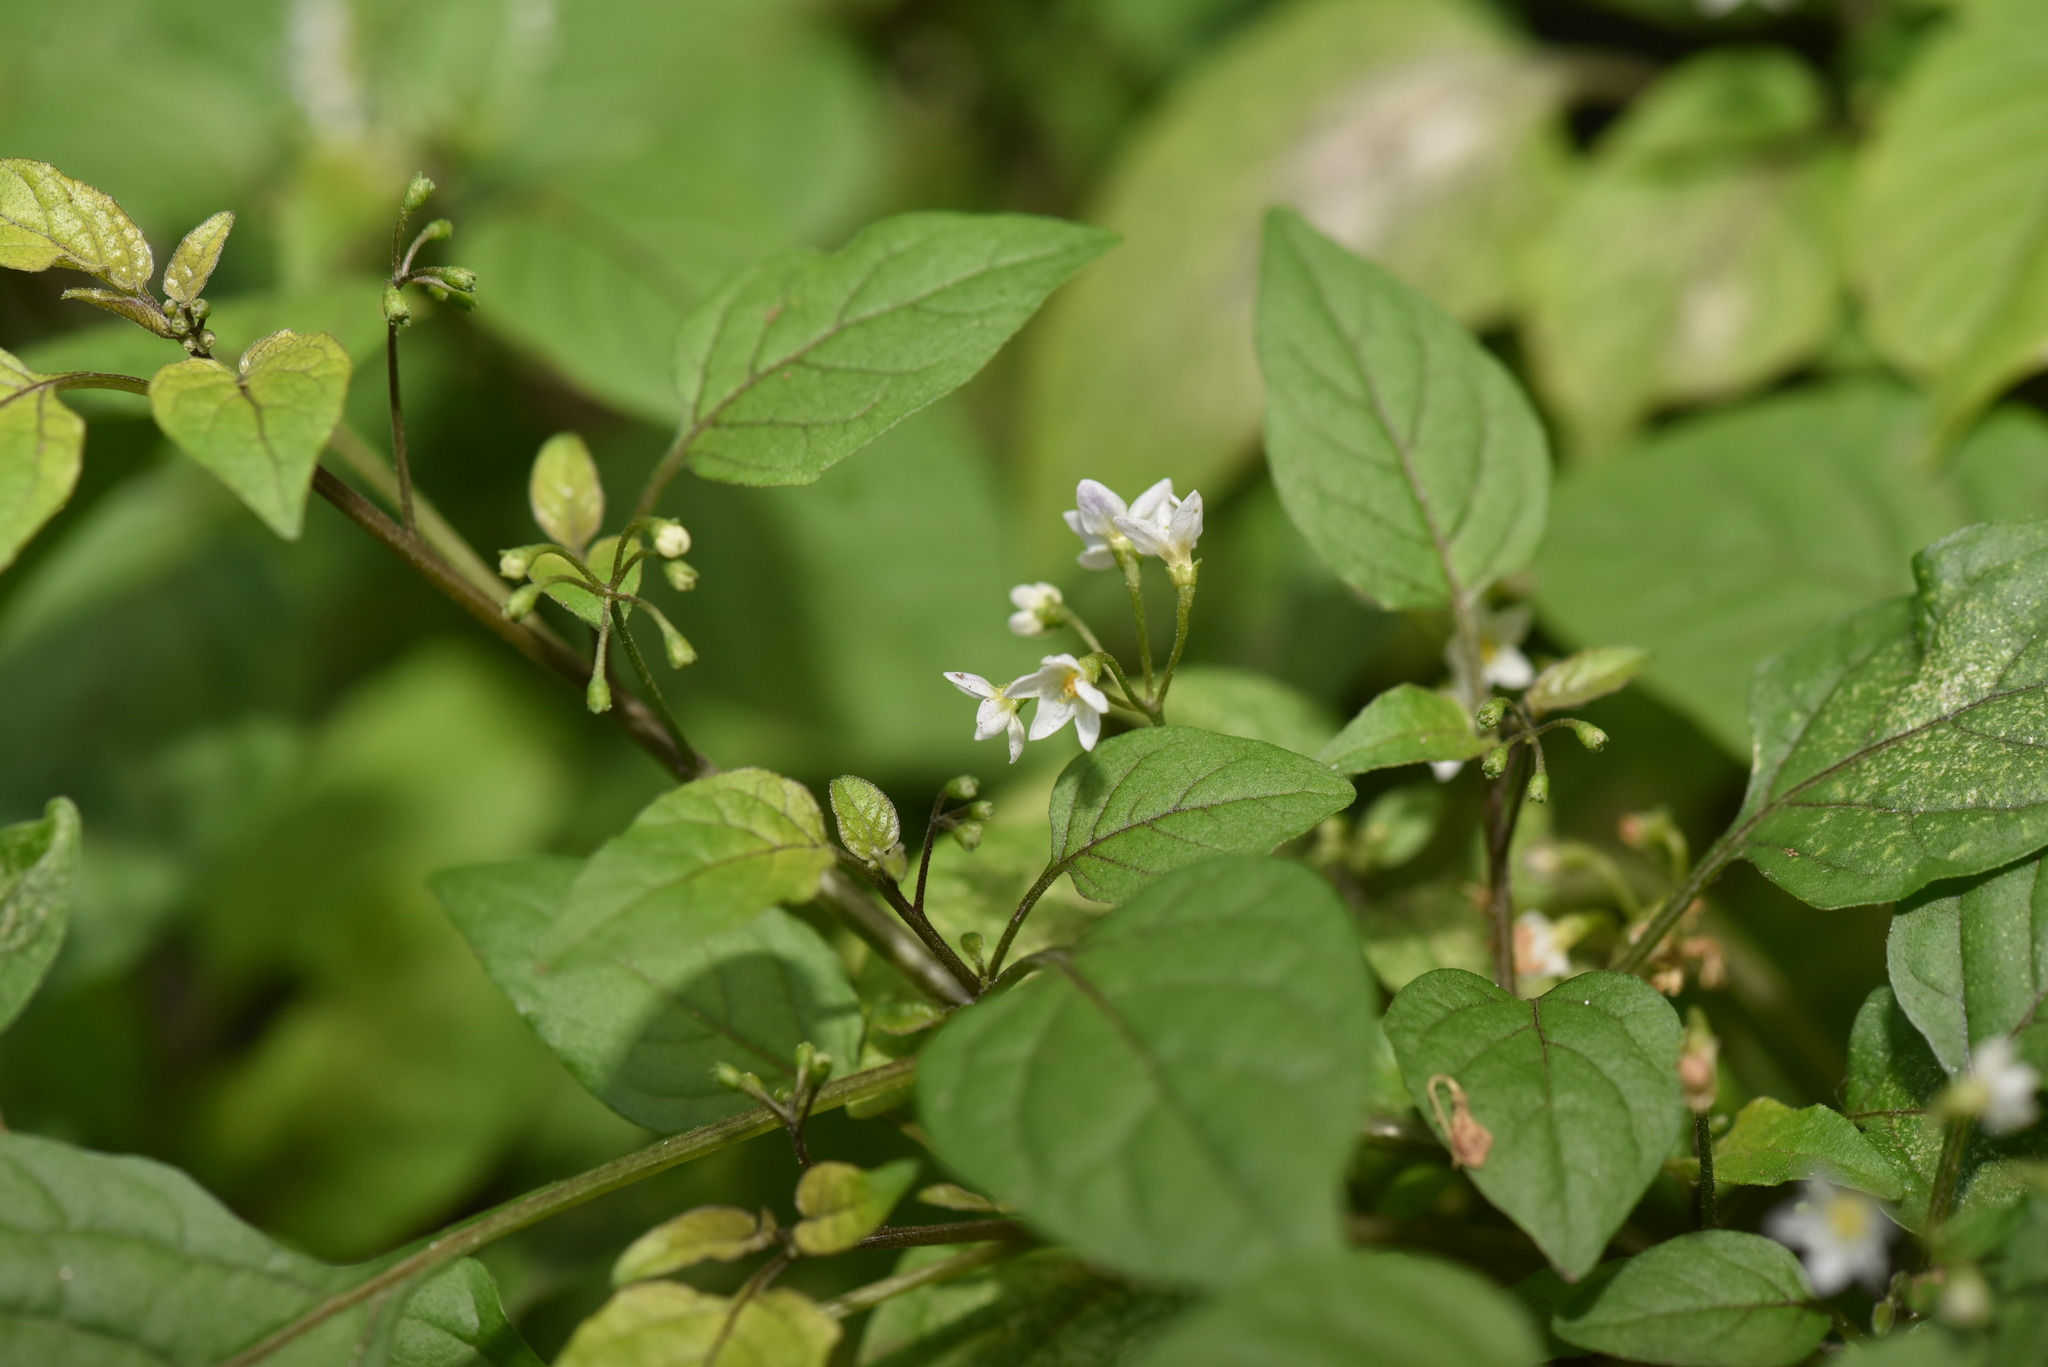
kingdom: Plantae
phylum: Tracheophyta
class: Magnoliopsida
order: Solanales
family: Solanaceae
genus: Solanum
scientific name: Solanum americanum
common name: American black nightshade
